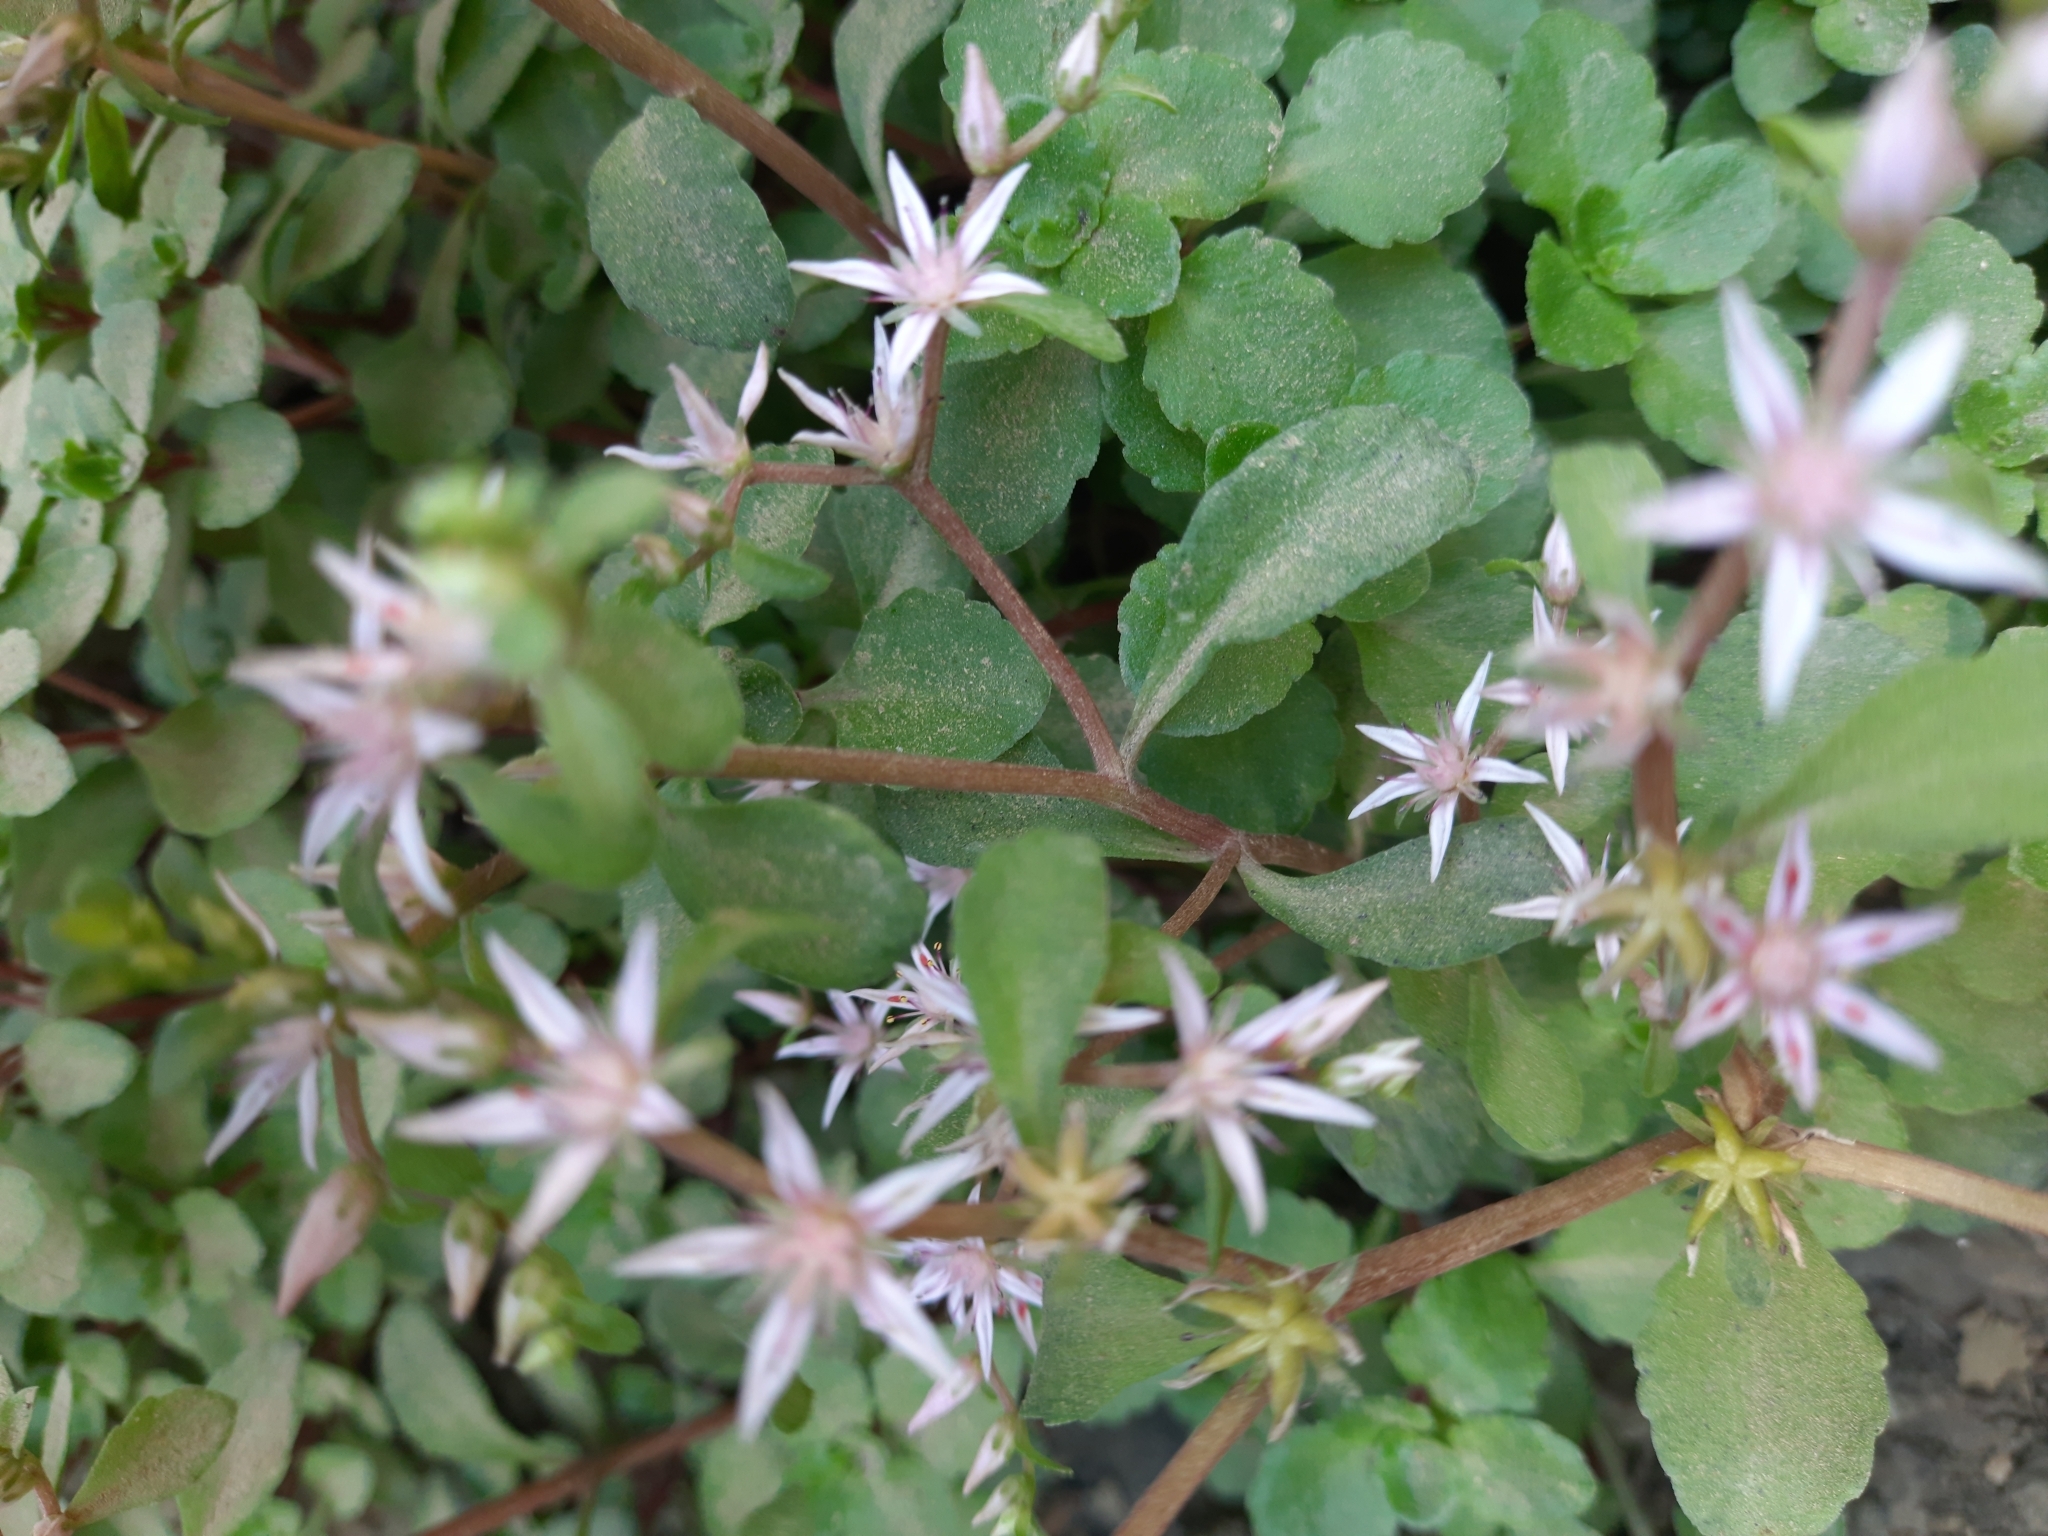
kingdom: Plantae
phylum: Tracheophyta
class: Magnoliopsida
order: Saxifragales
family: Crassulaceae
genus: Phedimus
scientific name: Phedimus stolonifer
